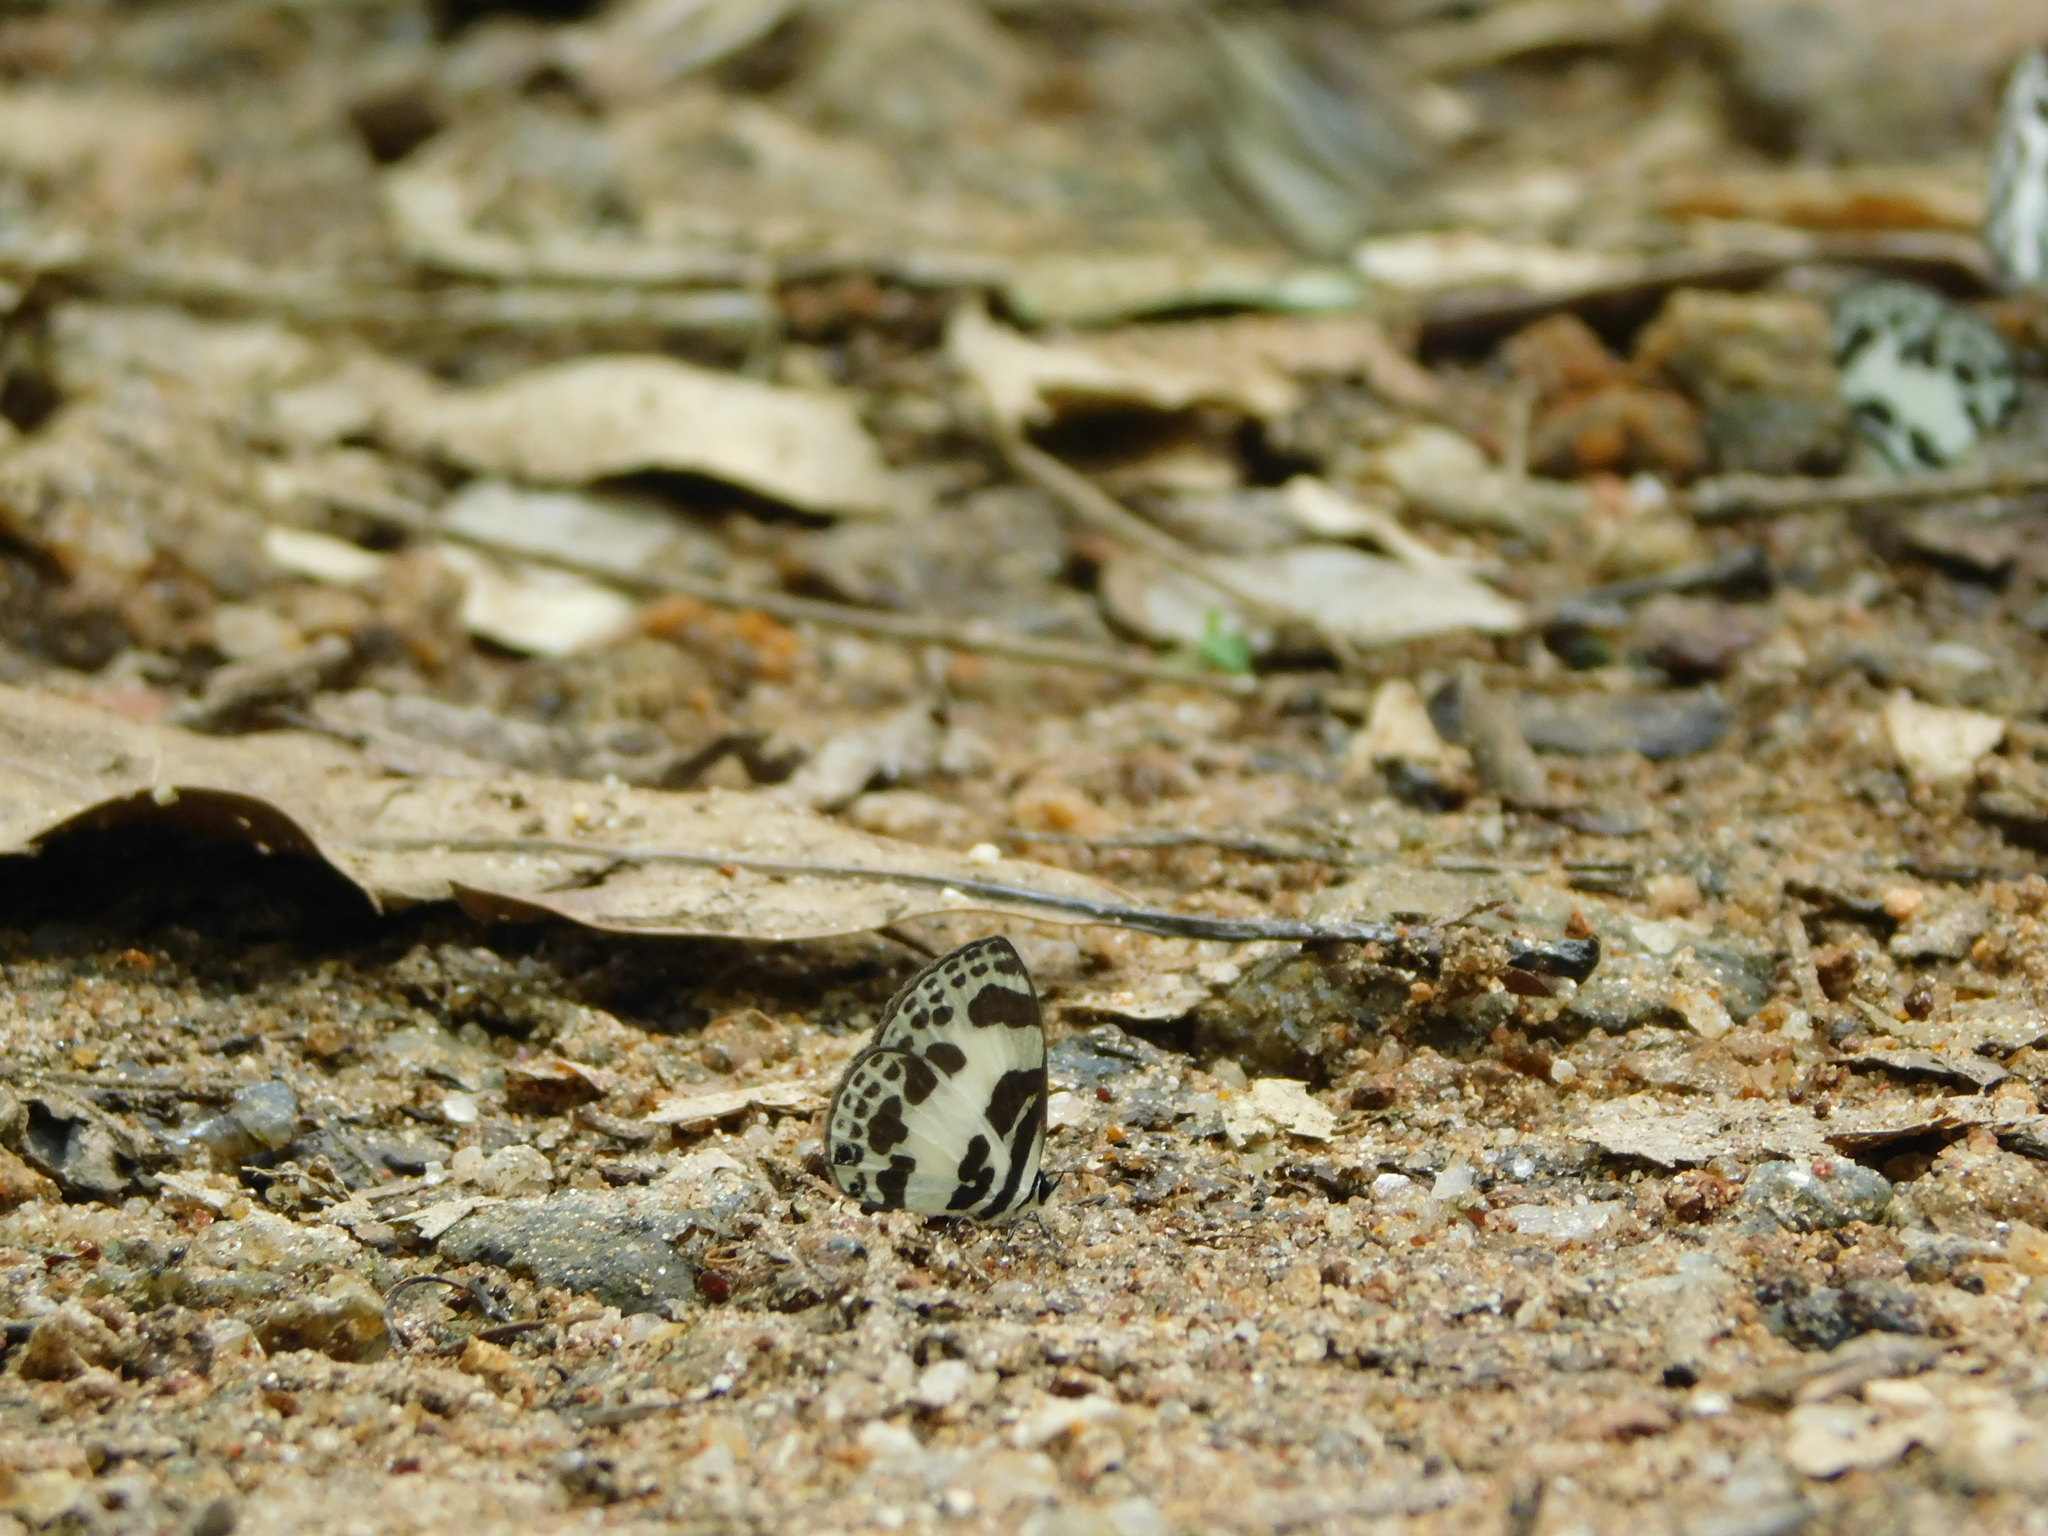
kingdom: Animalia
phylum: Arthropoda
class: Insecta
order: Lepidoptera
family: Lycaenidae
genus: Discolampa
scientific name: Discolampa ethion
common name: Banded blue pierrot
